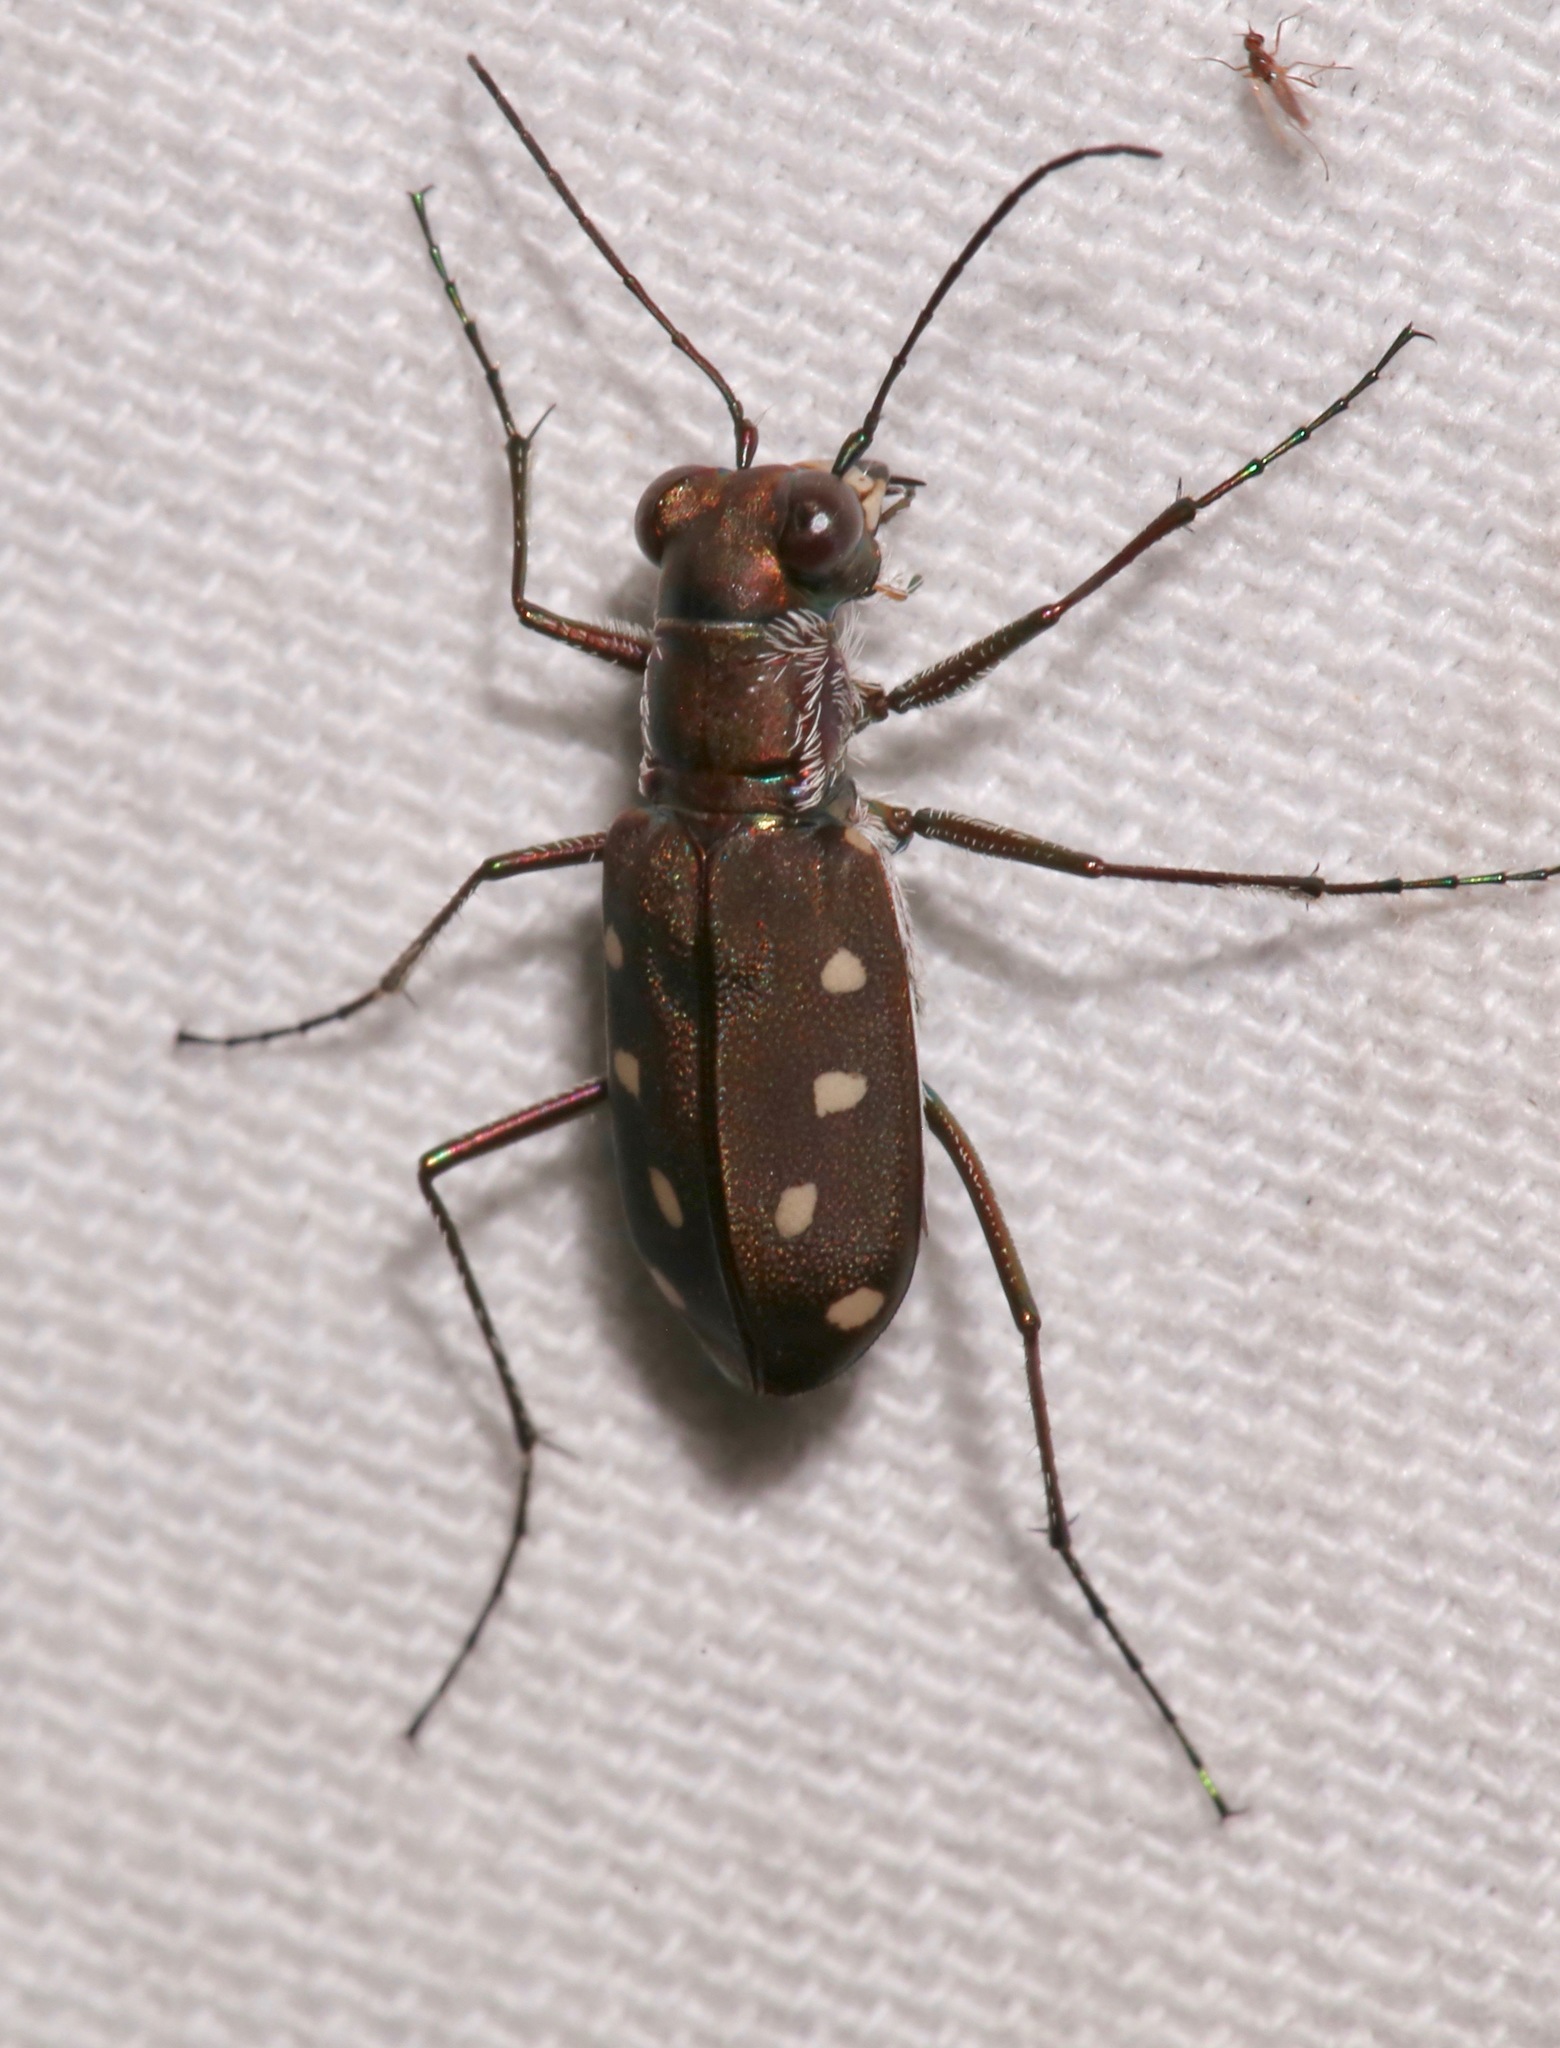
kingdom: Animalia
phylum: Arthropoda
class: Insecta
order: Coleoptera
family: Carabidae
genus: Cicindela
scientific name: Cicindela ocellata
